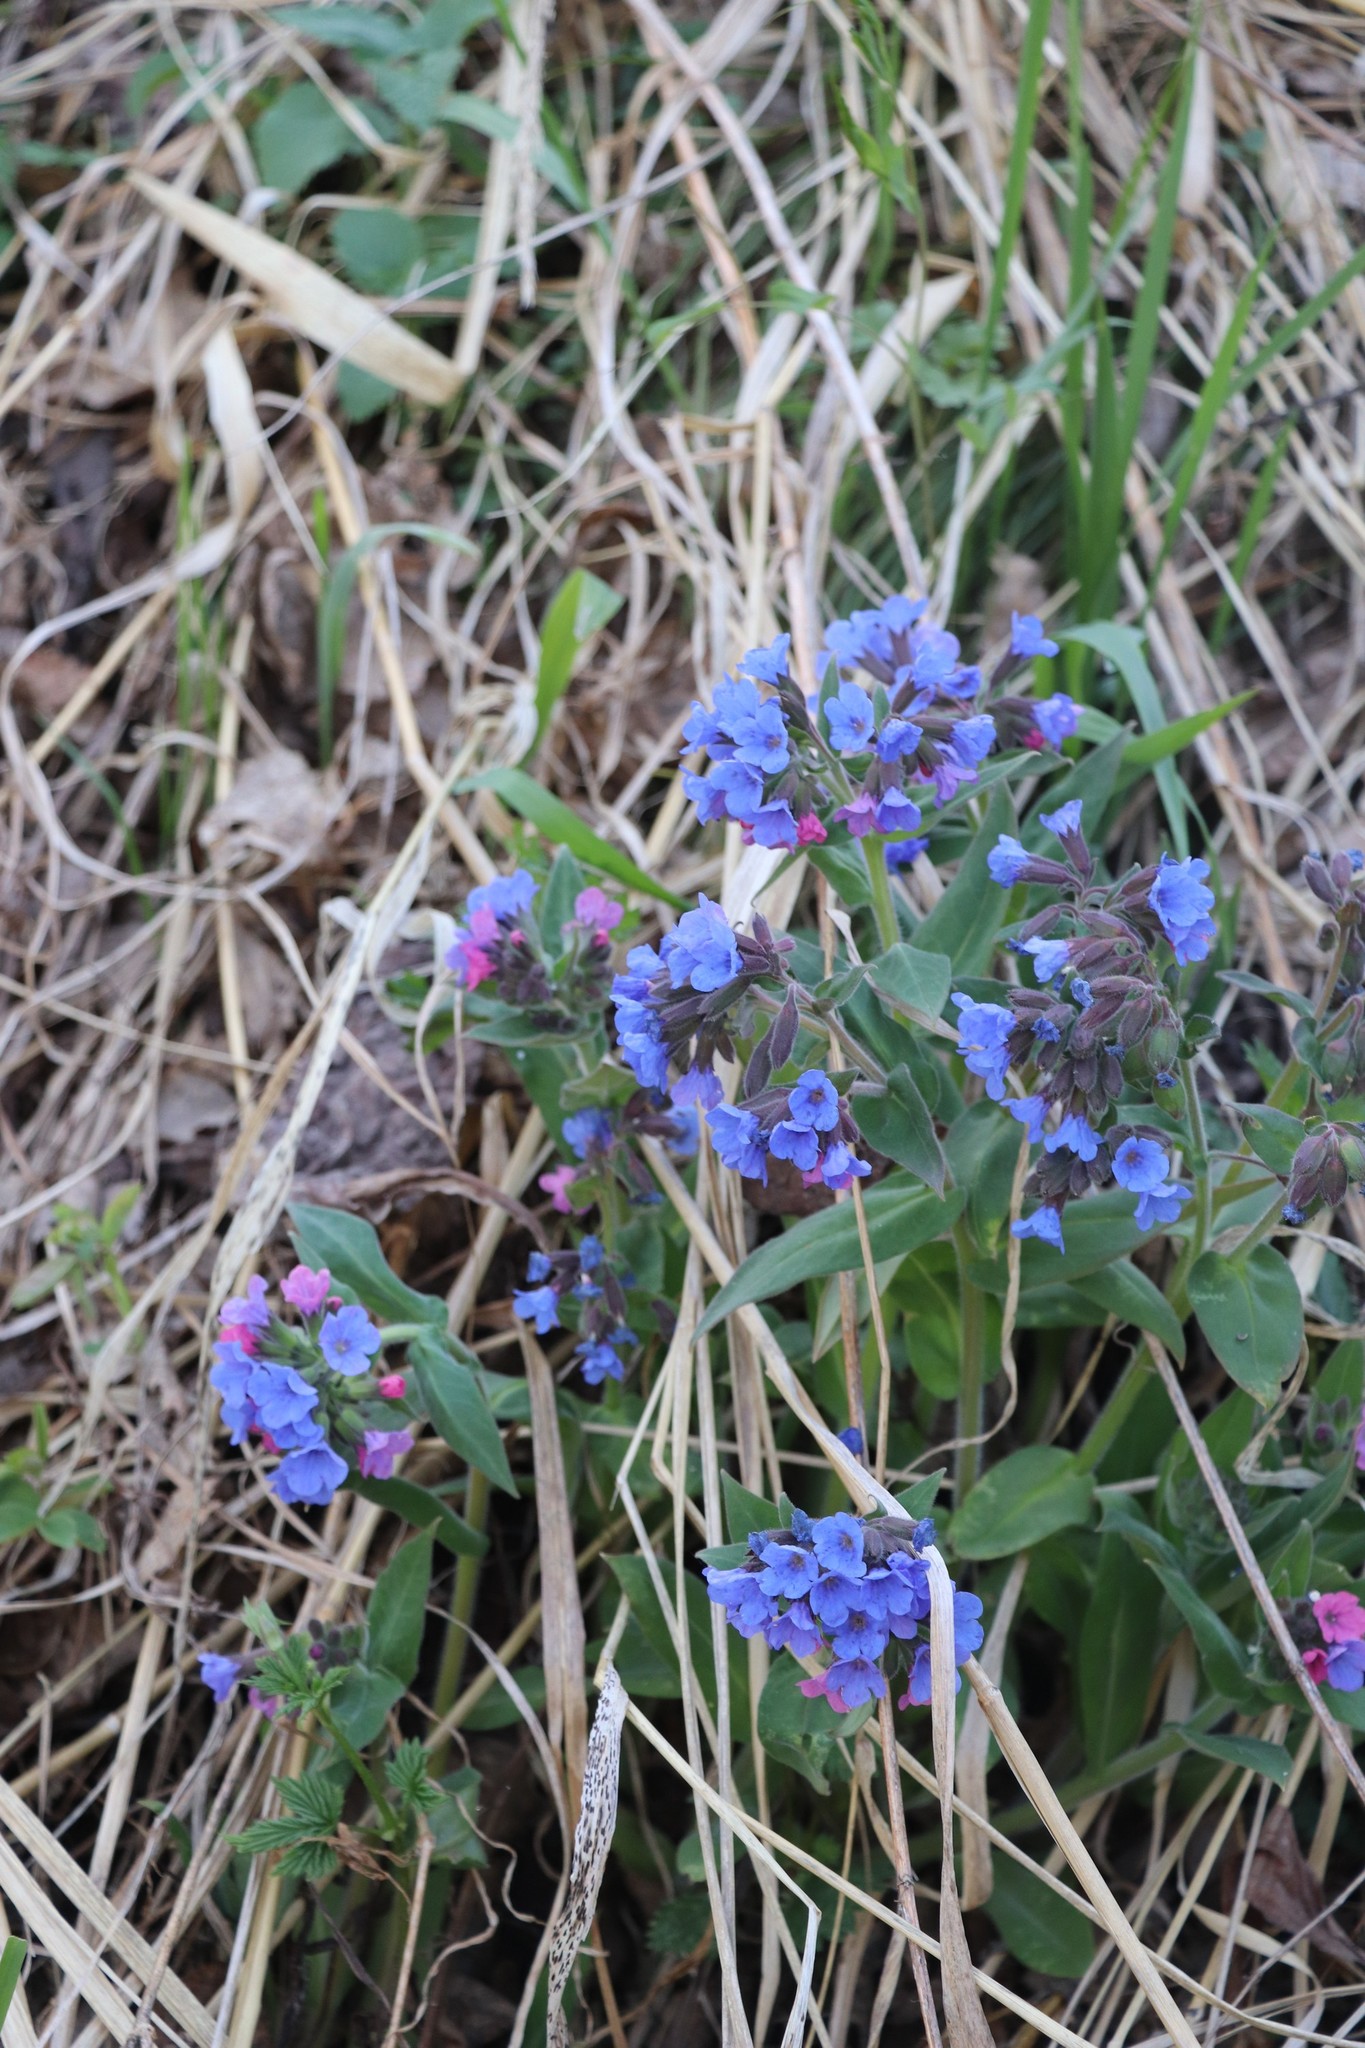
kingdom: Plantae
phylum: Tracheophyta
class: Magnoliopsida
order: Boraginales
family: Boraginaceae
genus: Pulmonaria
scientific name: Pulmonaria mollis
